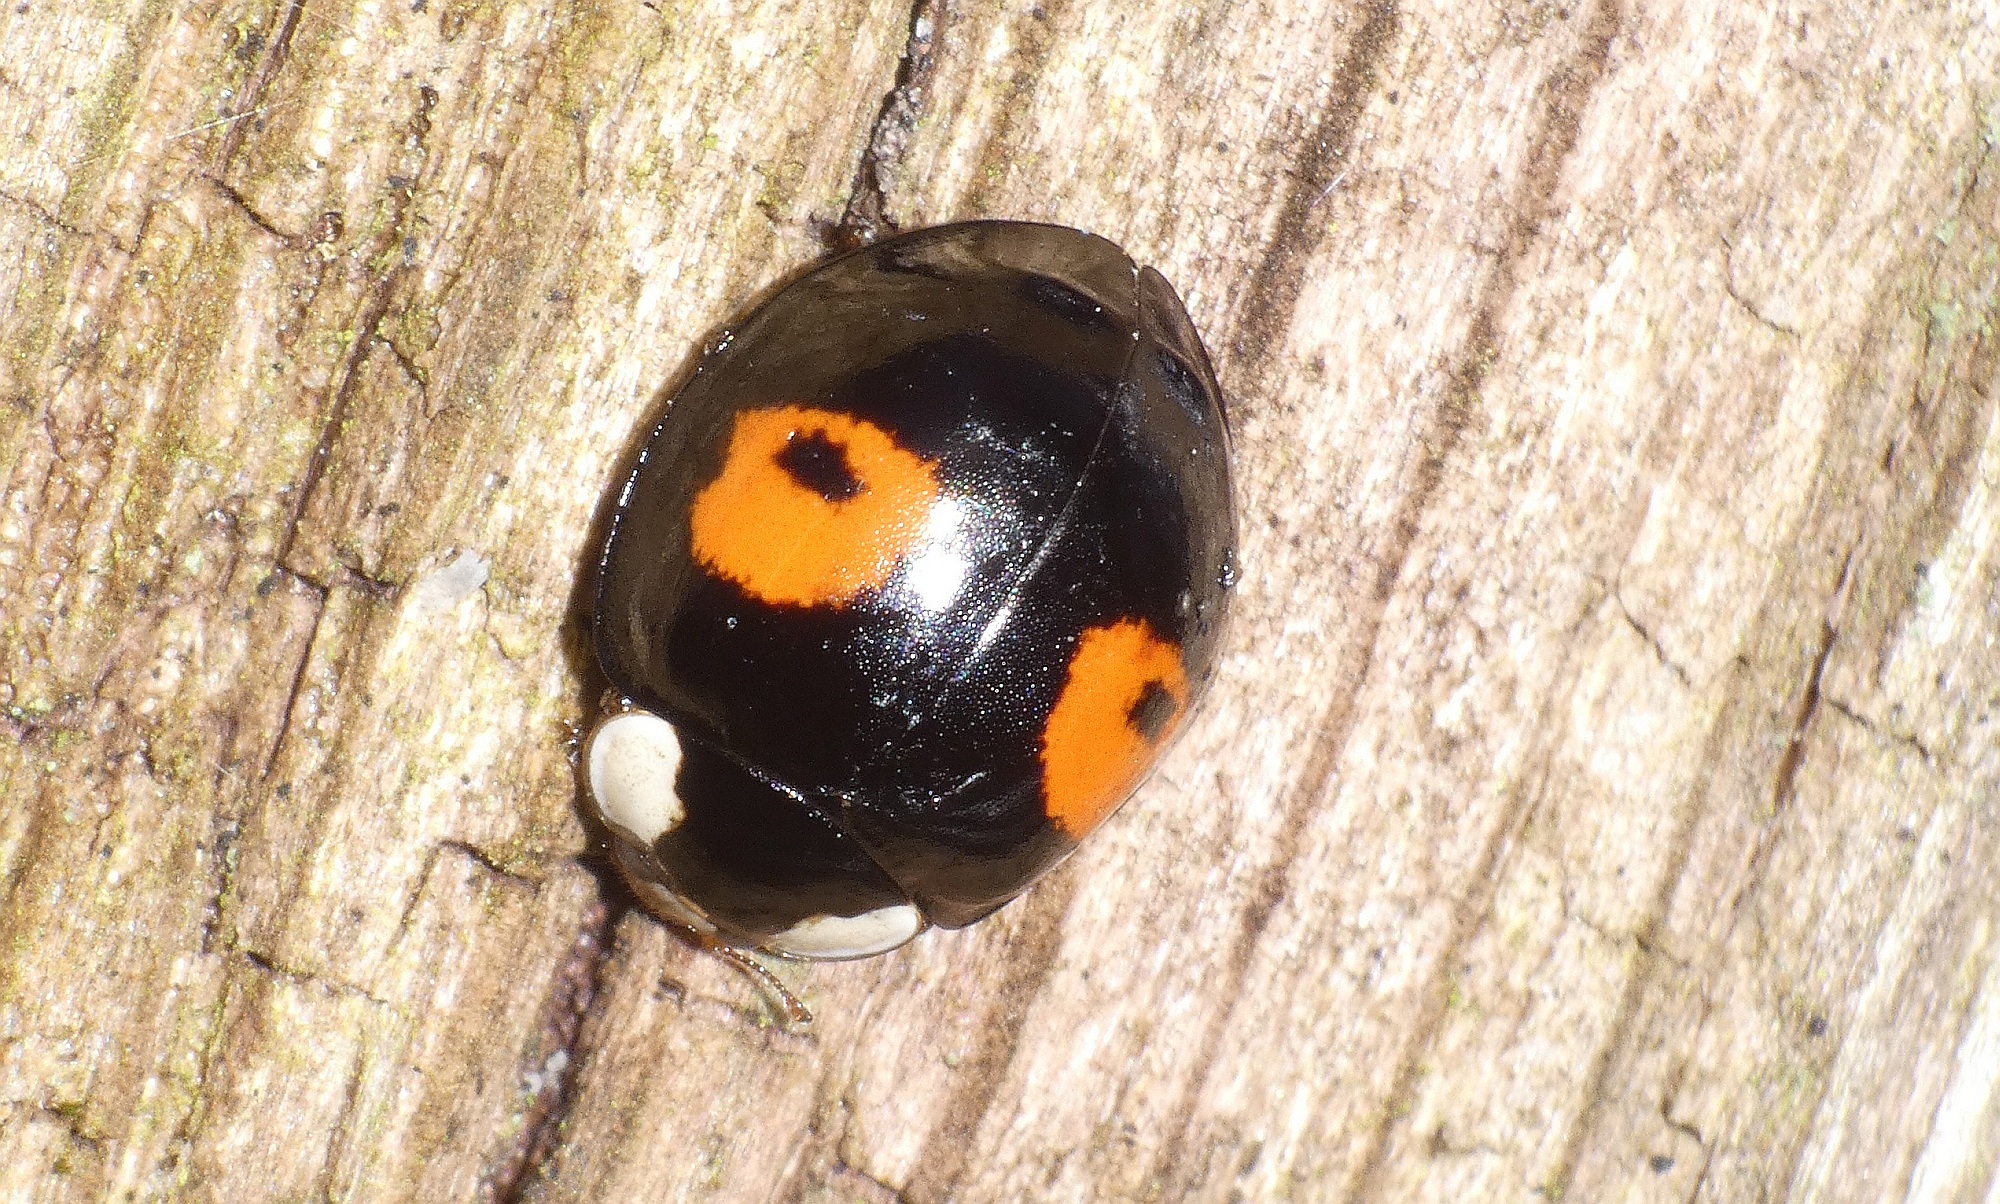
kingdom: Animalia
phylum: Arthropoda
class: Insecta
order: Coleoptera
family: Coccinellidae
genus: Harmonia
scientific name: Harmonia axyridis
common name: Harlequin ladybird
